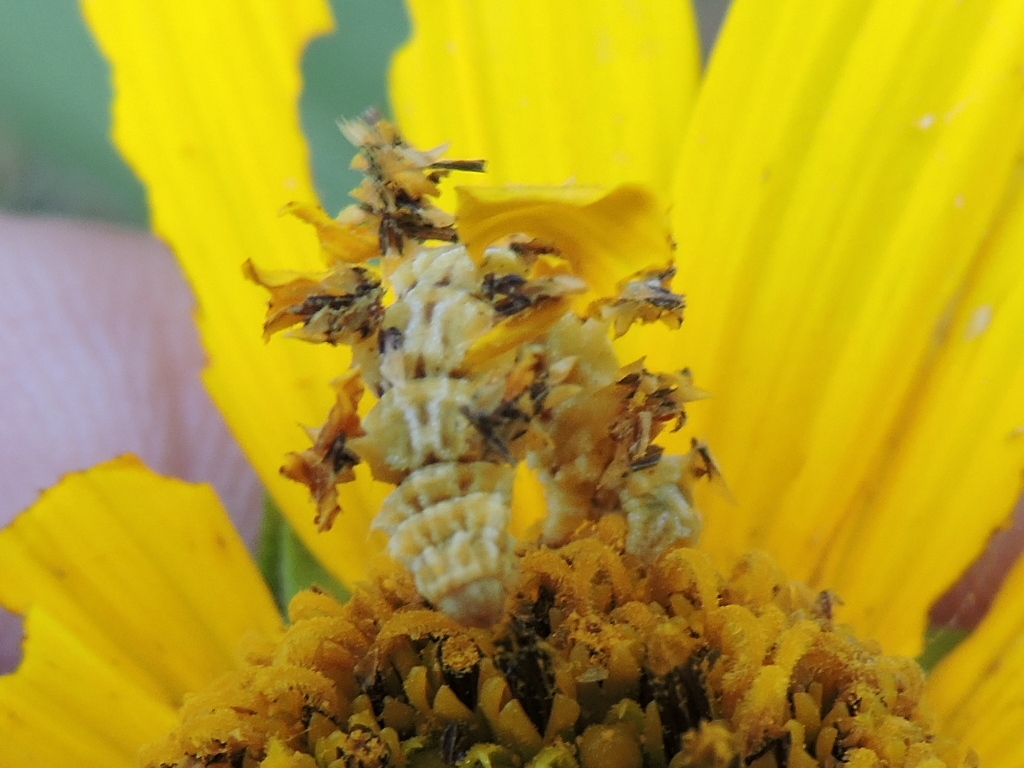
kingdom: Animalia
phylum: Arthropoda
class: Insecta
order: Lepidoptera
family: Geometridae
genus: Synchlora
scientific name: Synchlora
